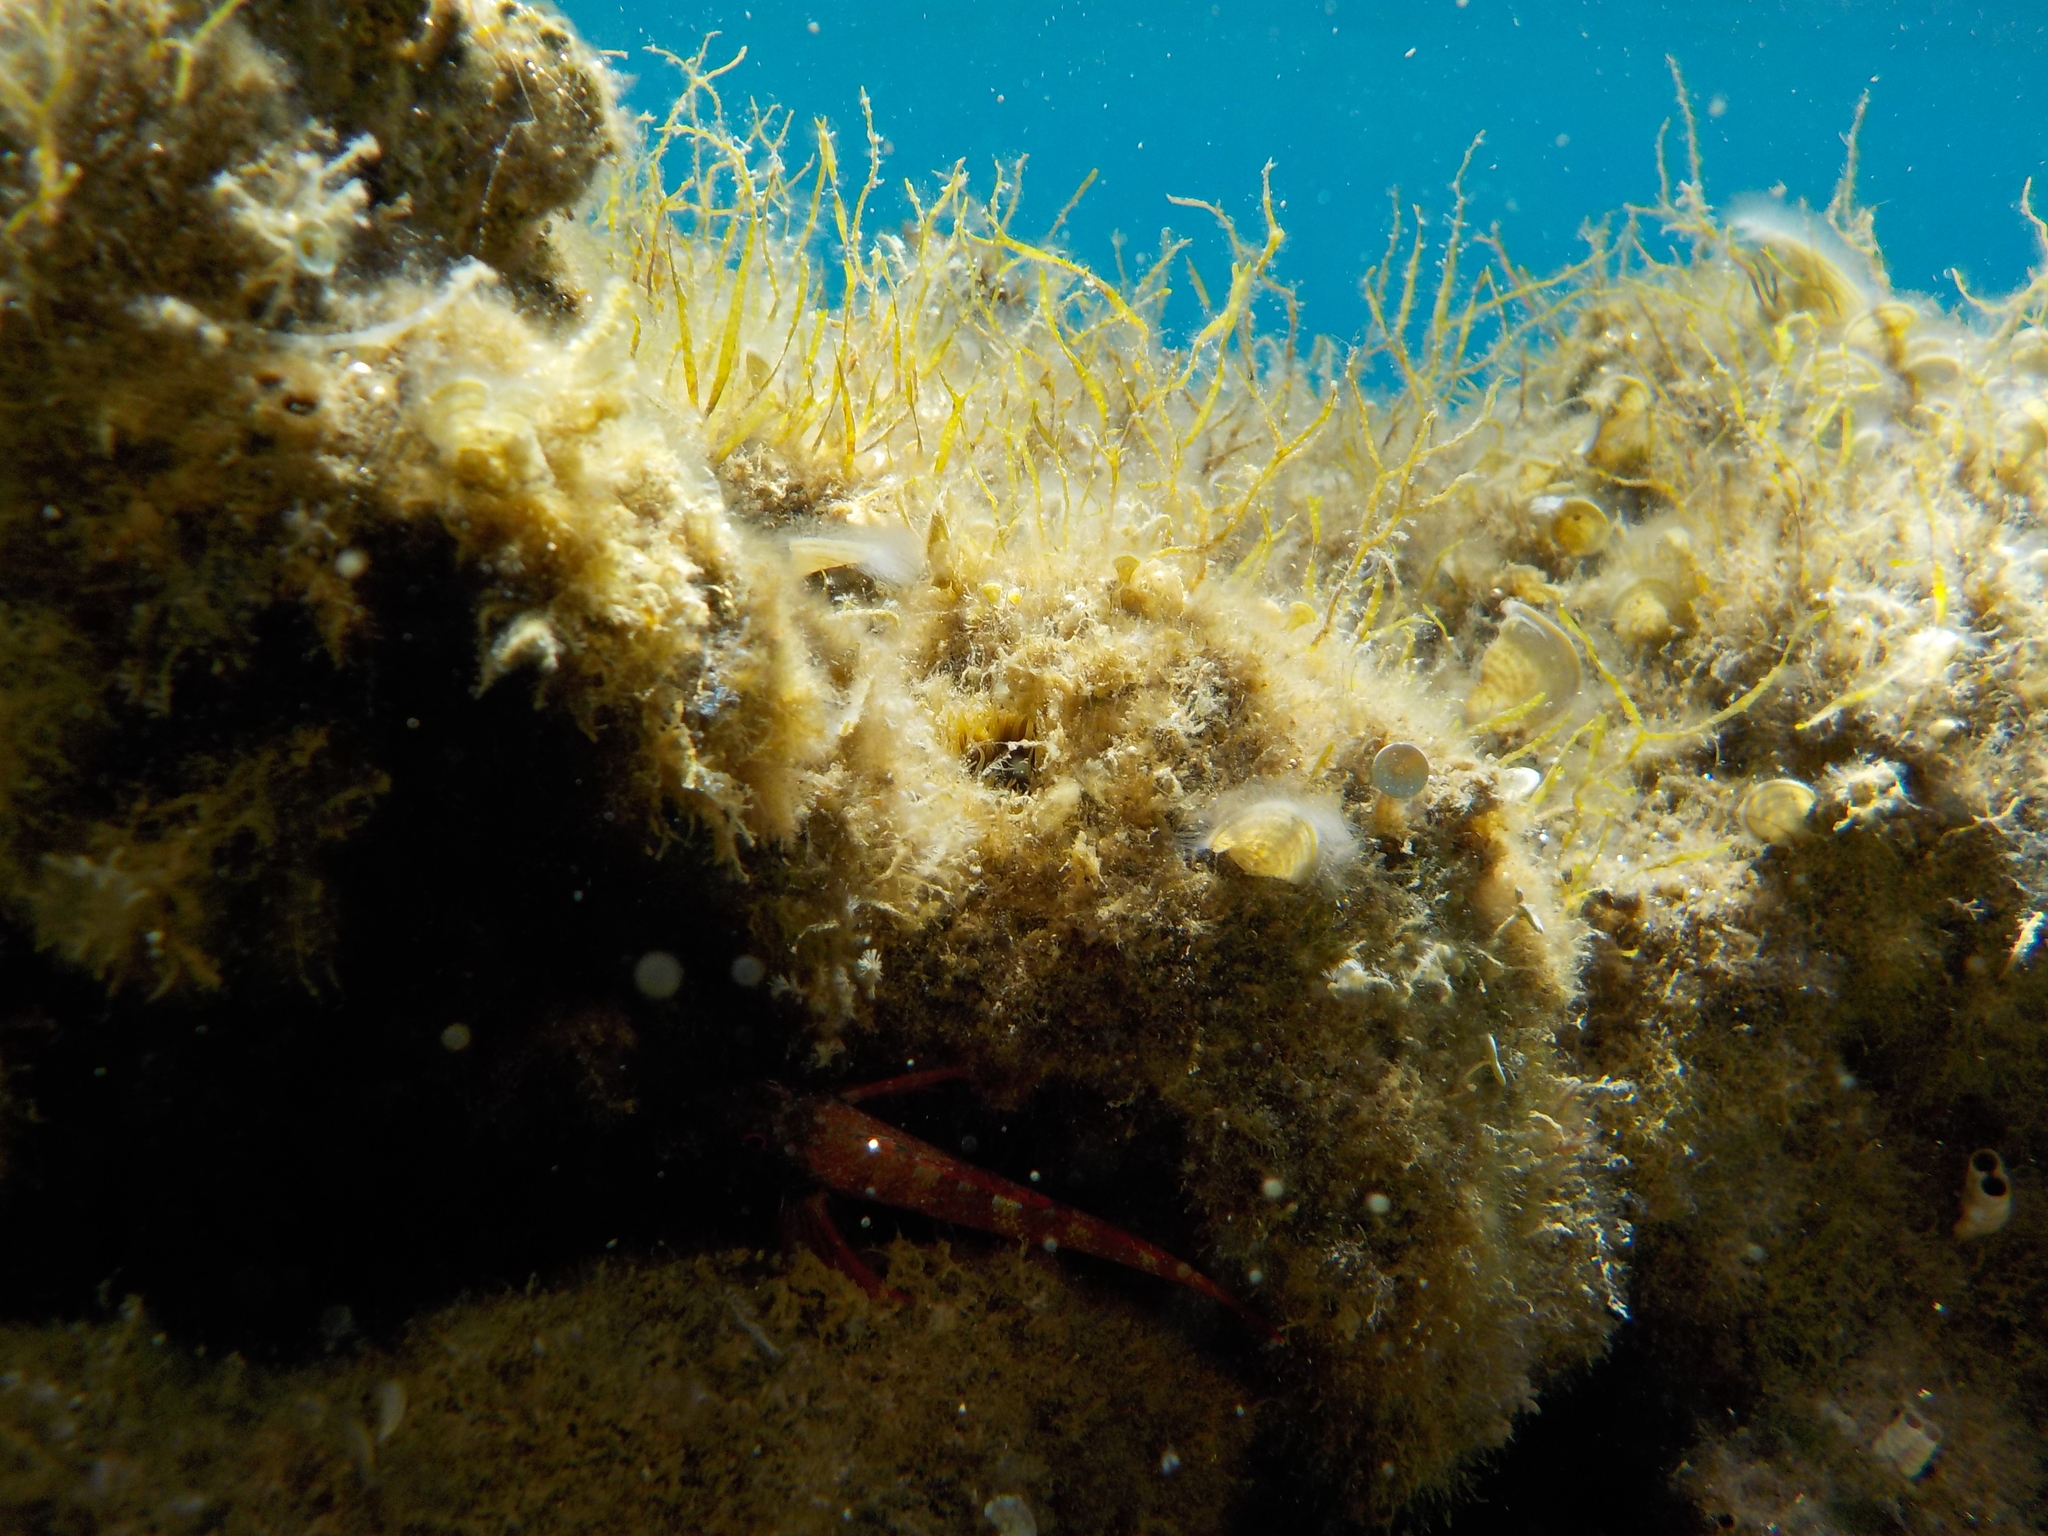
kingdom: Animalia
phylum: Chordata
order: Perciformes
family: Tripterygiidae
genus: Tripterygion
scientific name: Tripterygion tripteronotum
